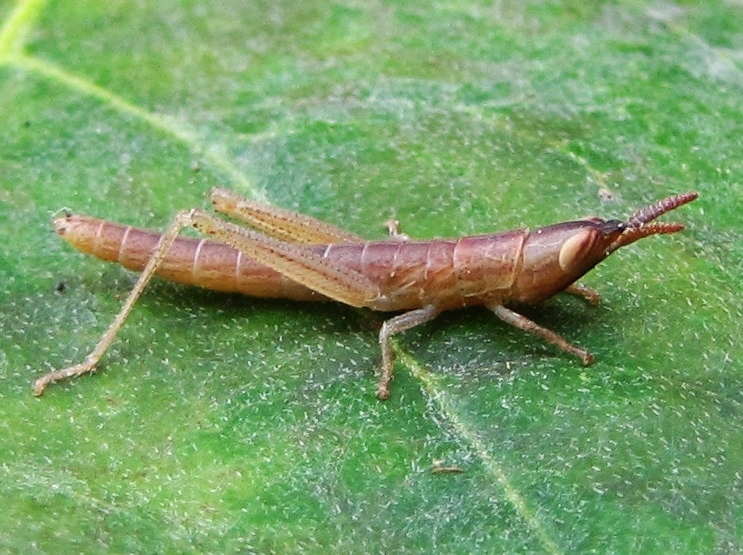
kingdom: Animalia
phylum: Arthropoda
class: Insecta
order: Orthoptera
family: Acrididae
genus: Leptysma
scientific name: Leptysma marginicollis
